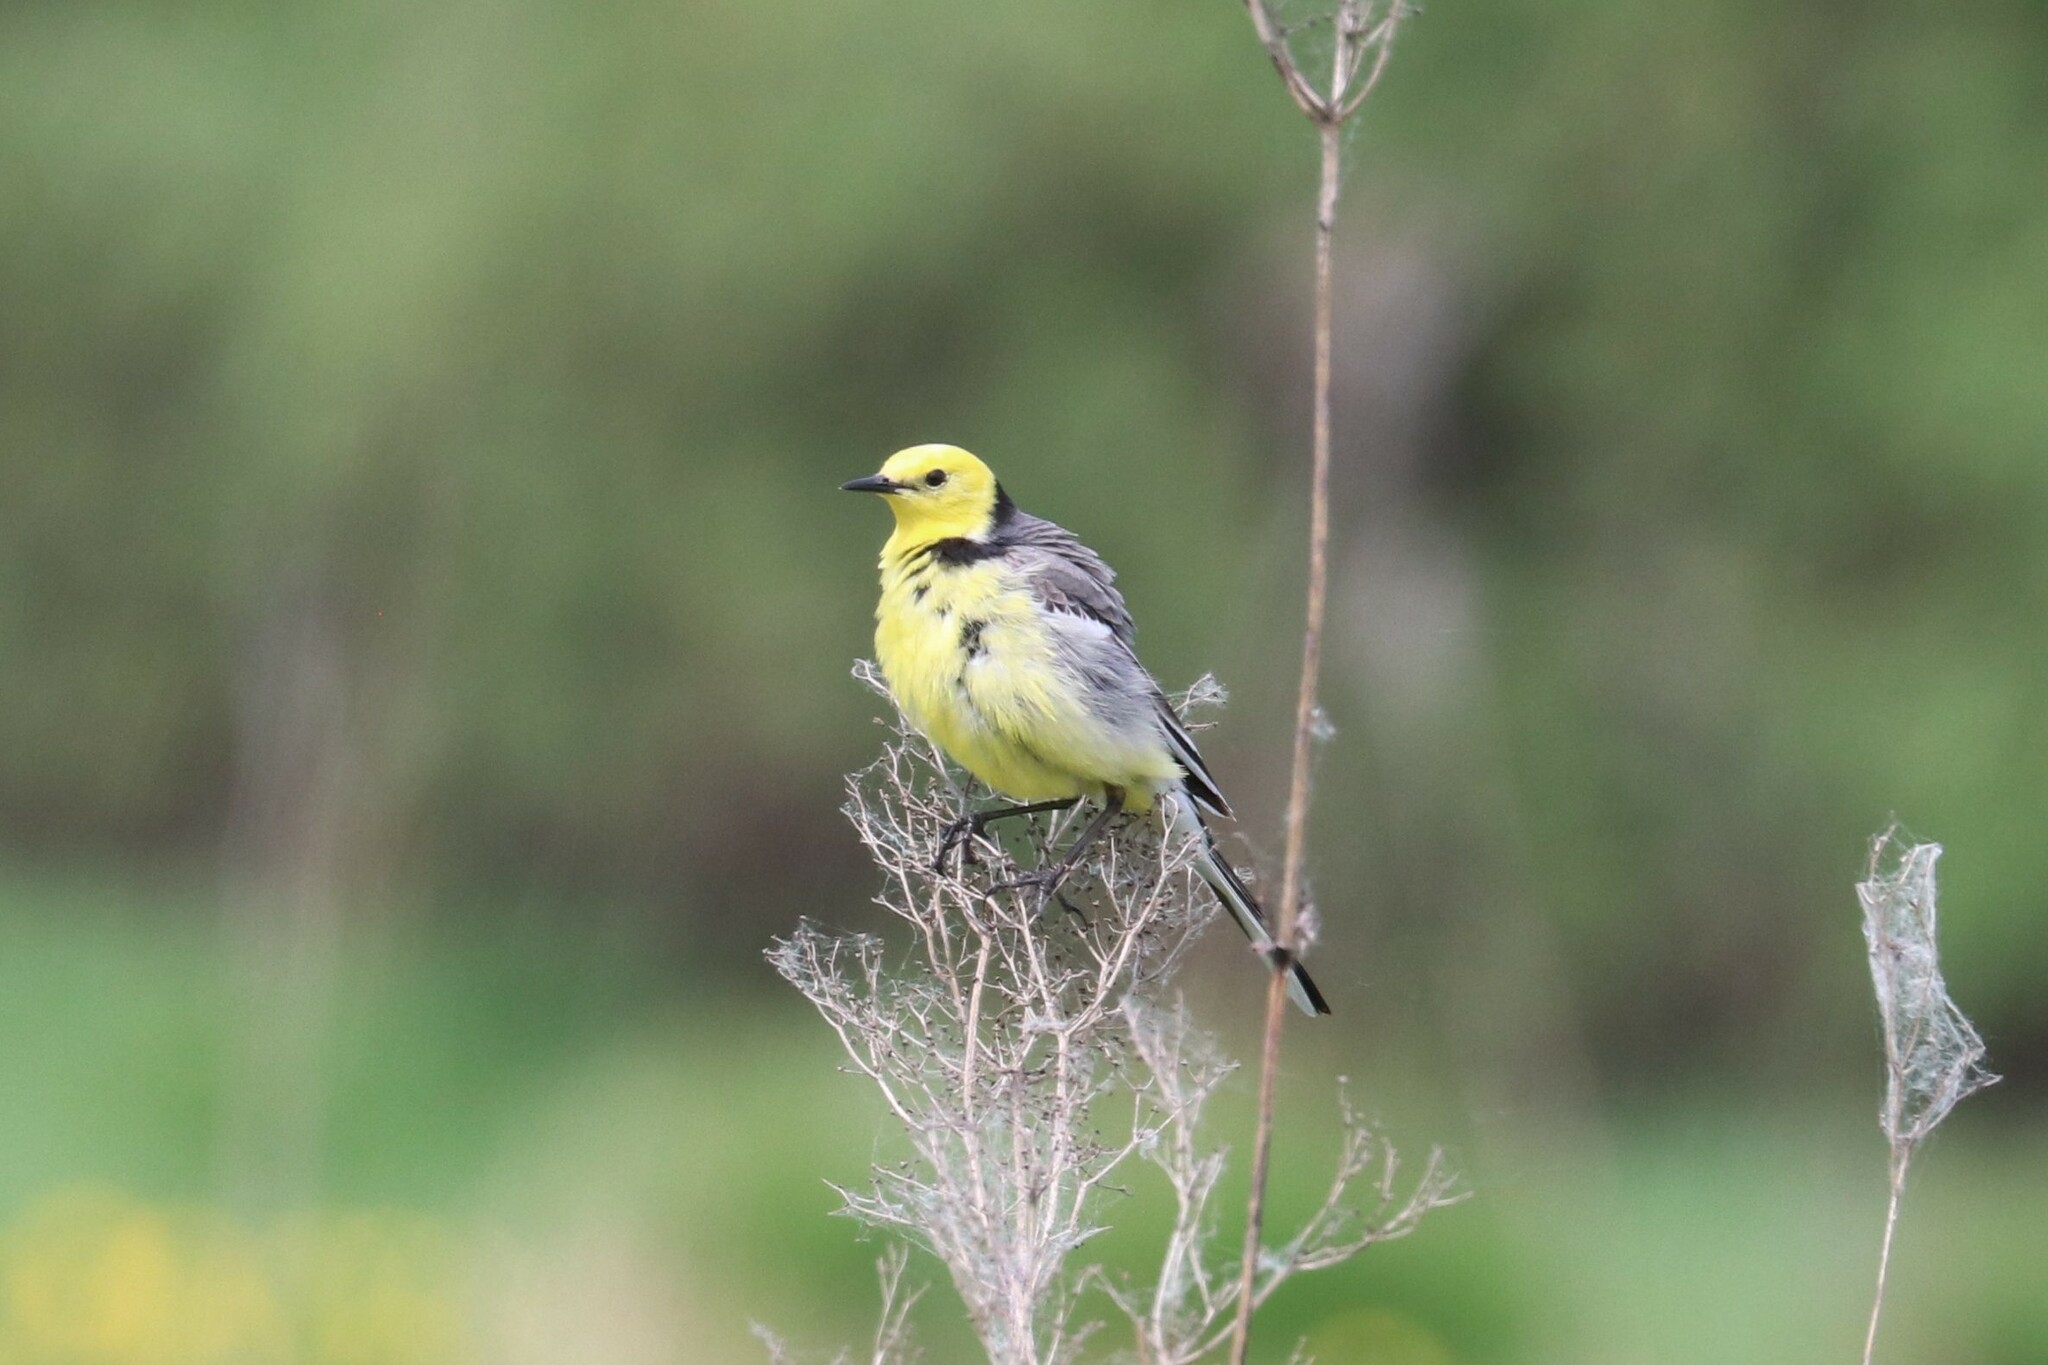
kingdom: Animalia
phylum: Chordata
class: Aves
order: Passeriformes
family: Motacillidae
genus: Motacilla
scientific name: Motacilla citreola
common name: Citrine wagtail
